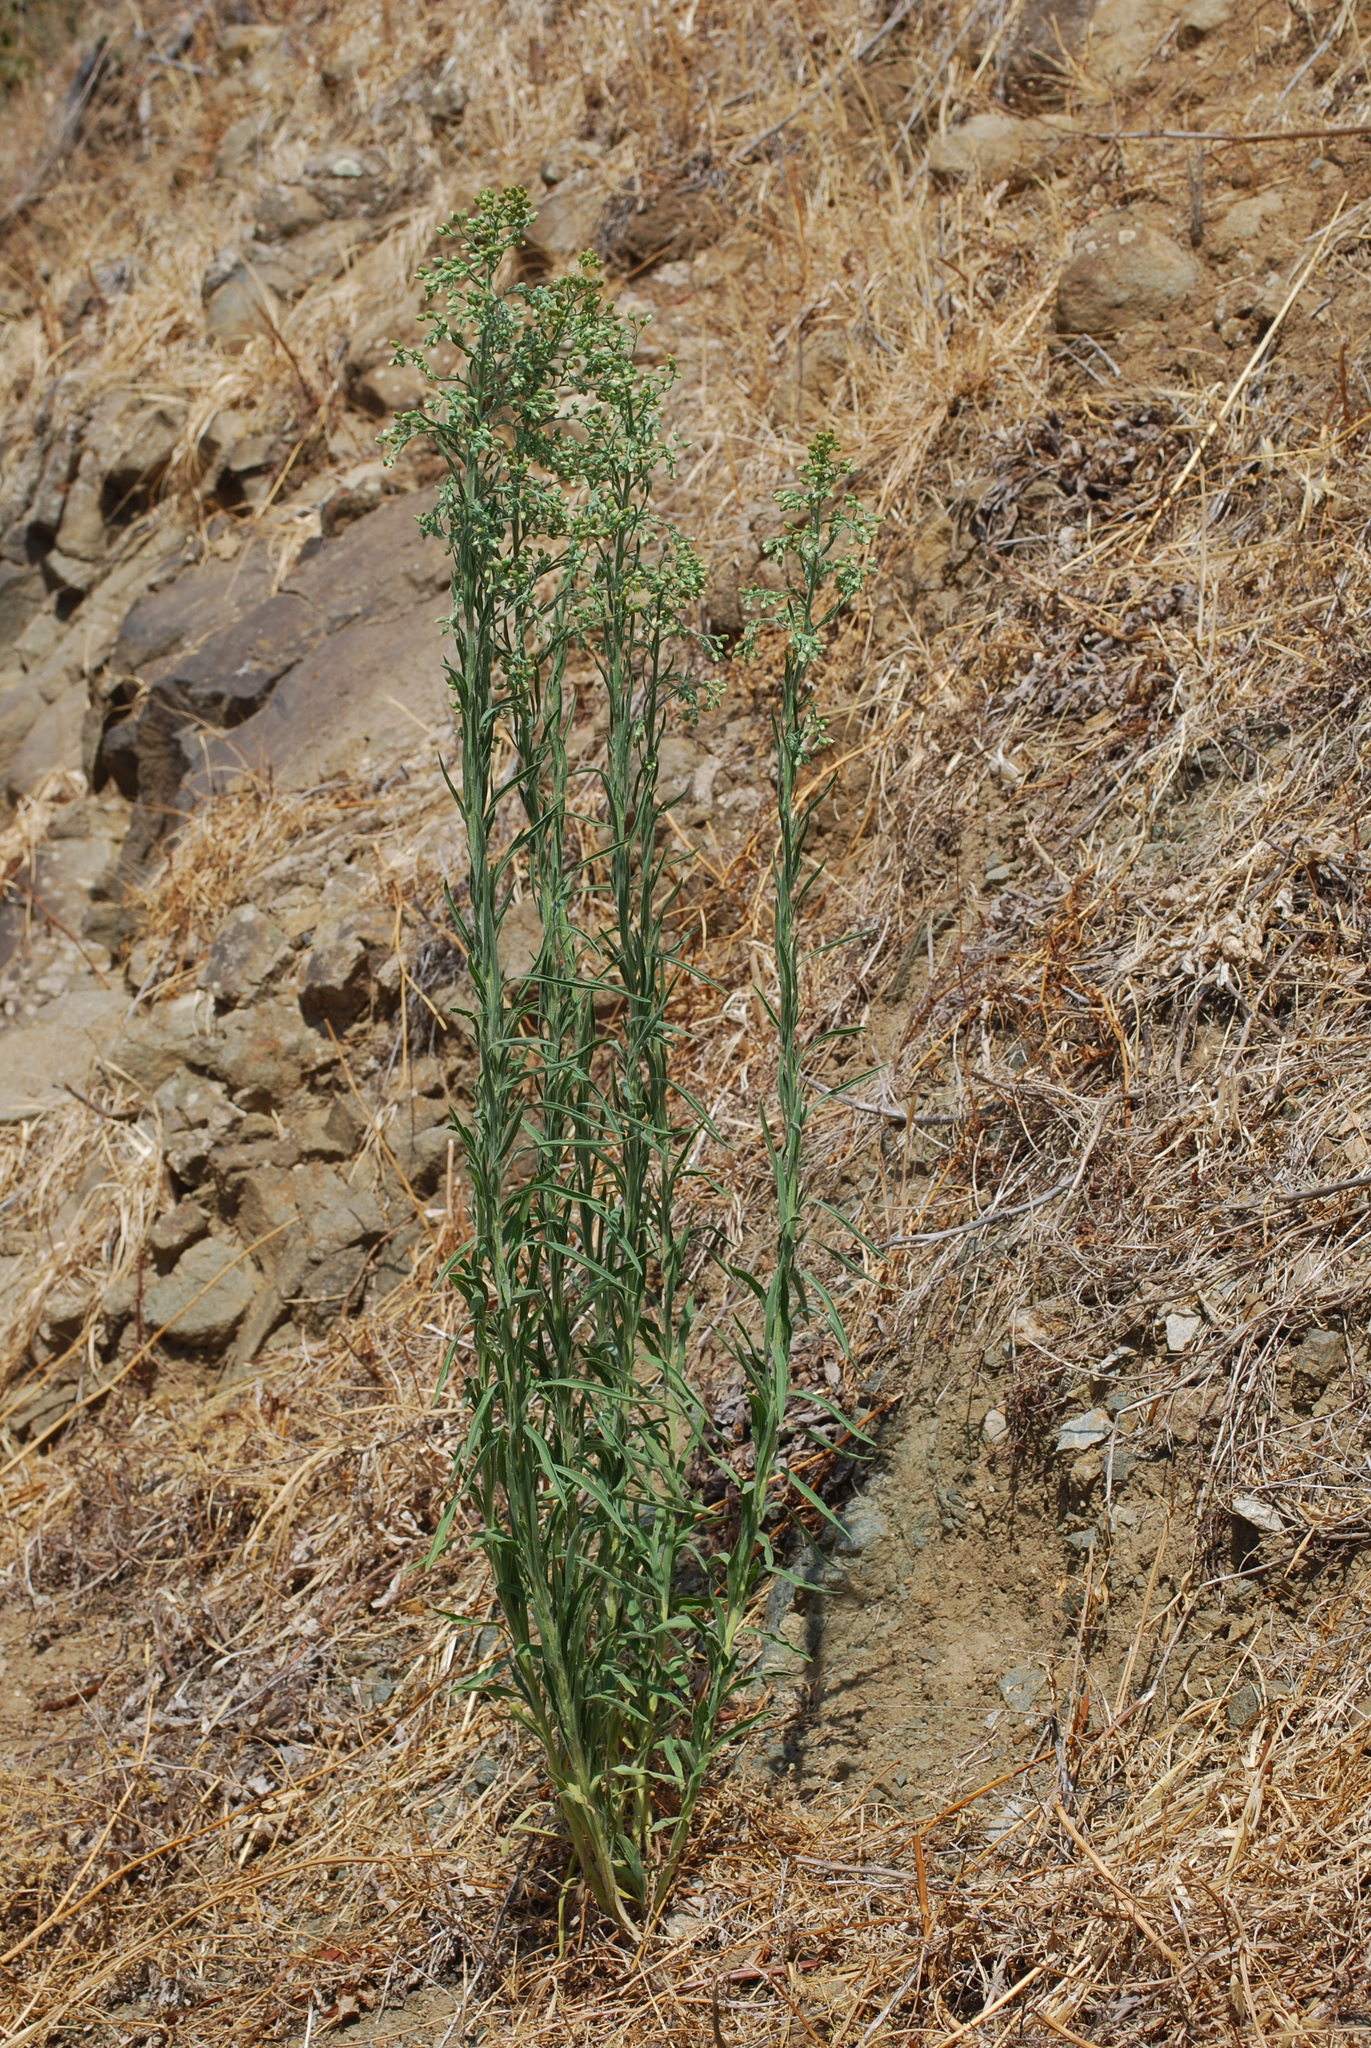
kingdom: Plantae
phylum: Tracheophyta
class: Magnoliopsida
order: Asterales
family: Asteraceae
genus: Erigeron
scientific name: Erigeron bonariensis
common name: Argentine fleabane
